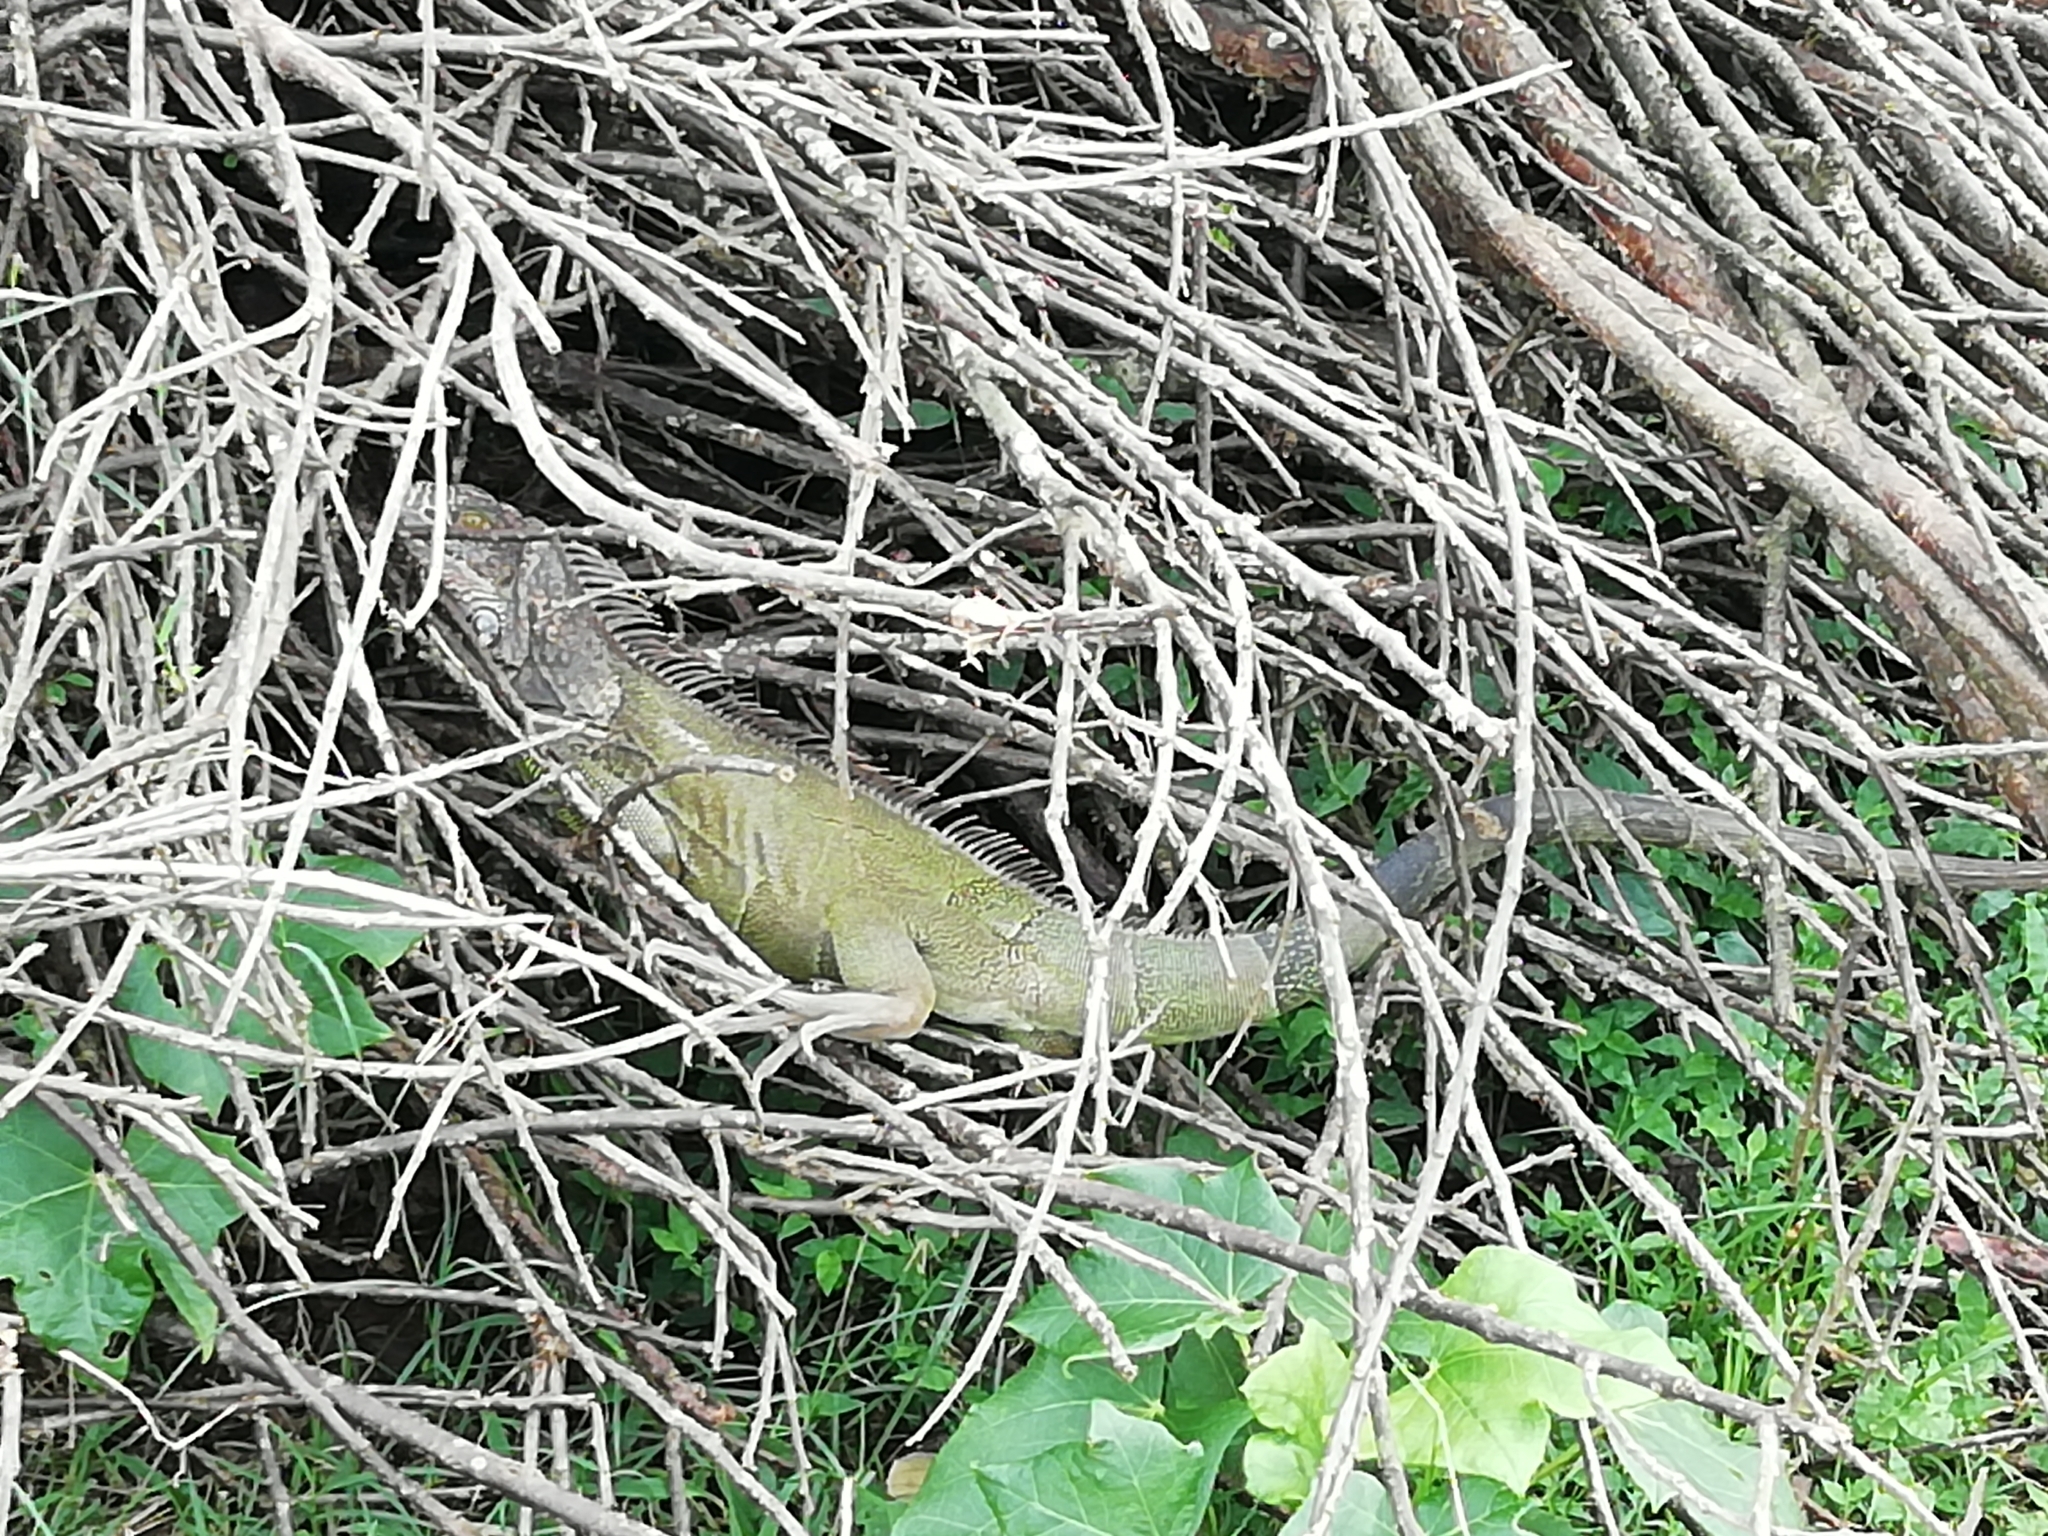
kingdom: Animalia
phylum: Chordata
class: Squamata
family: Iguanidae
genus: Iguana
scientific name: Iguana iguana
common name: Green iguana
